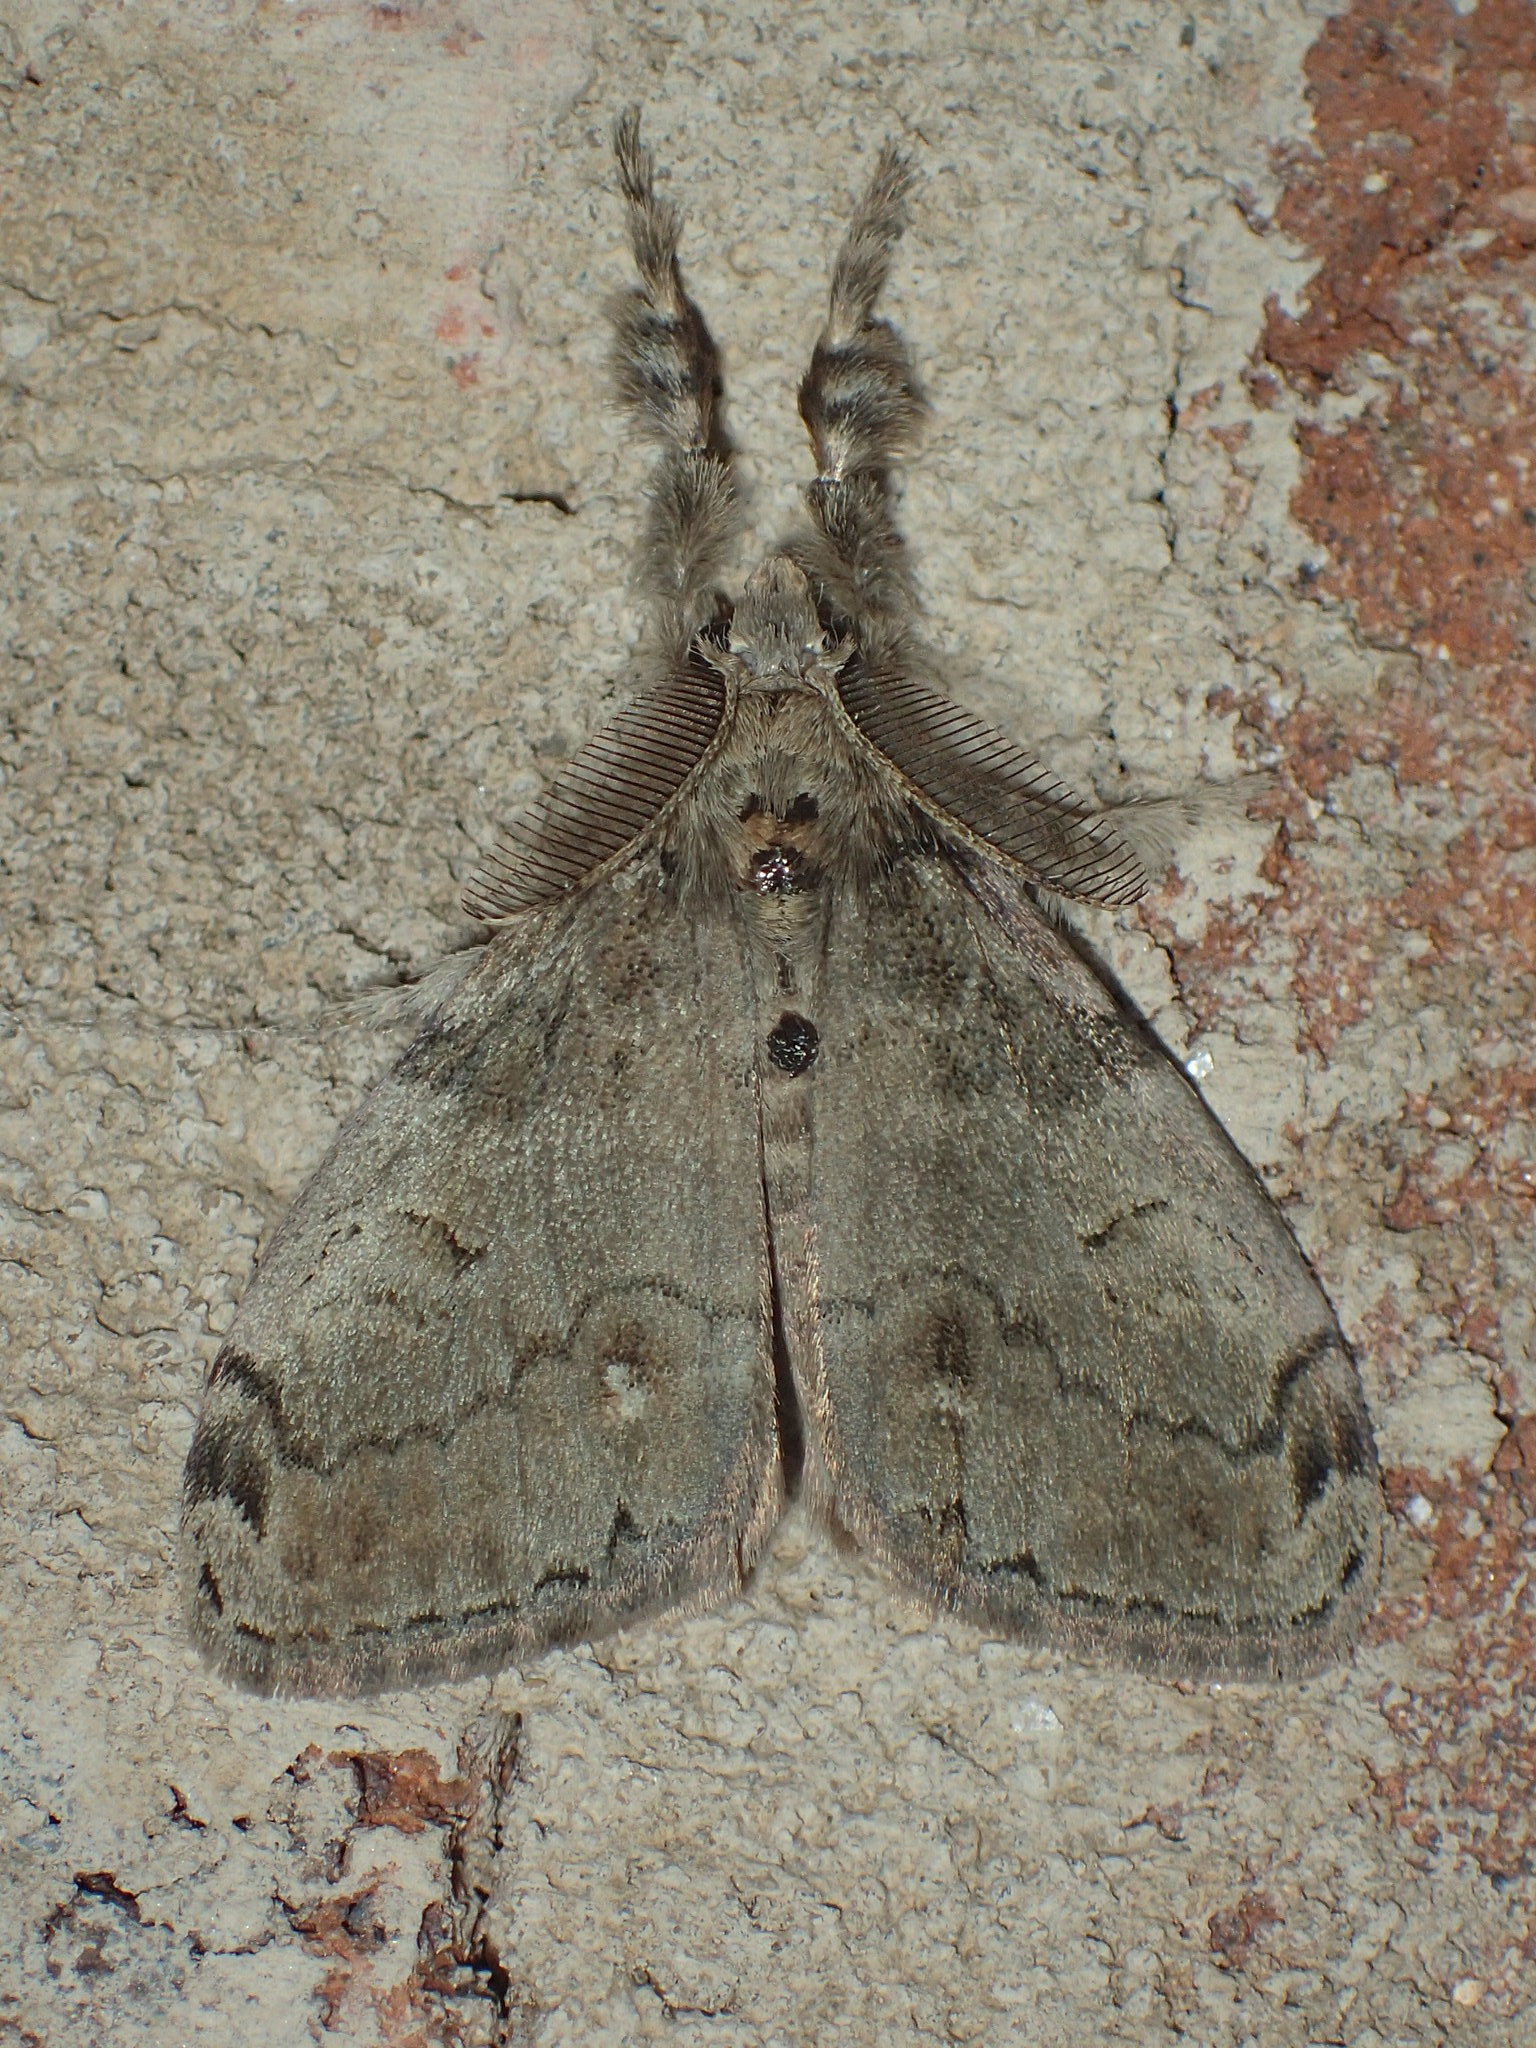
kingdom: Animalia
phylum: Arthropoda
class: Insecta
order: Lepidoptera
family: Erebidae
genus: Orgyia
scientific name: Orgyia leucostigma
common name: White-marked tussock moth
